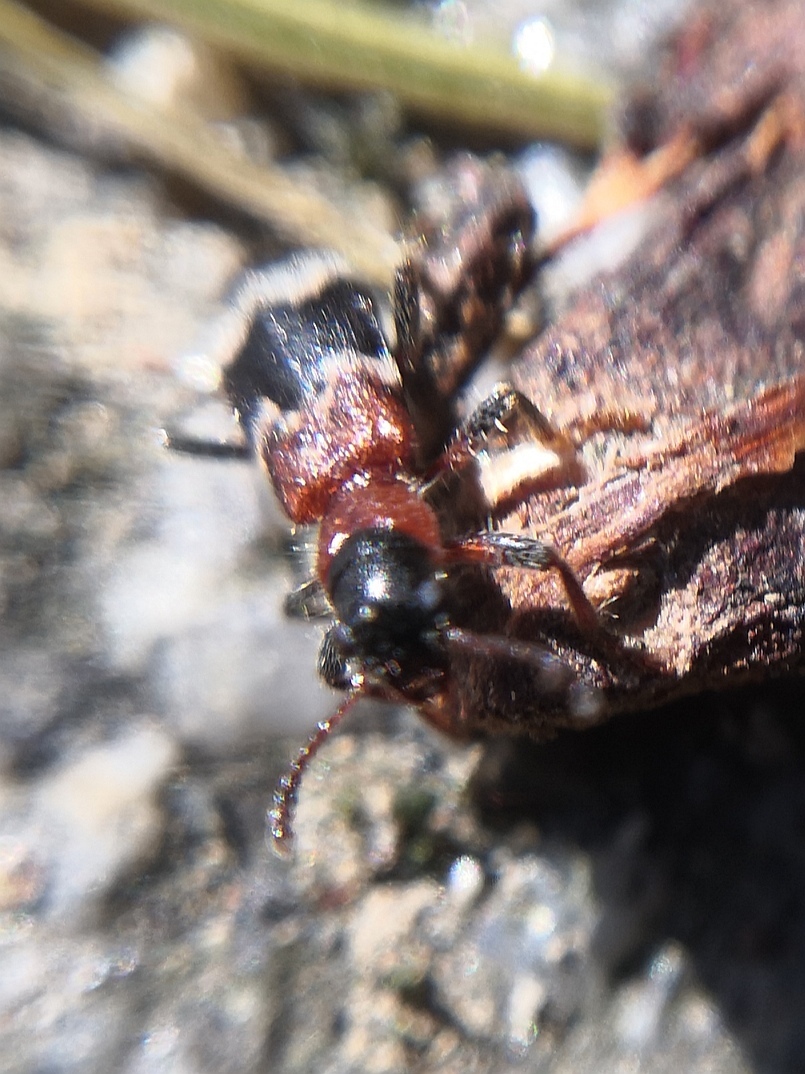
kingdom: Animalia
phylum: Arthropoda
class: Insecta
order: Coleoptera
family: Cleridae
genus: Thanasimus
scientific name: Thanasimus formicarius
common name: Ant beetle
